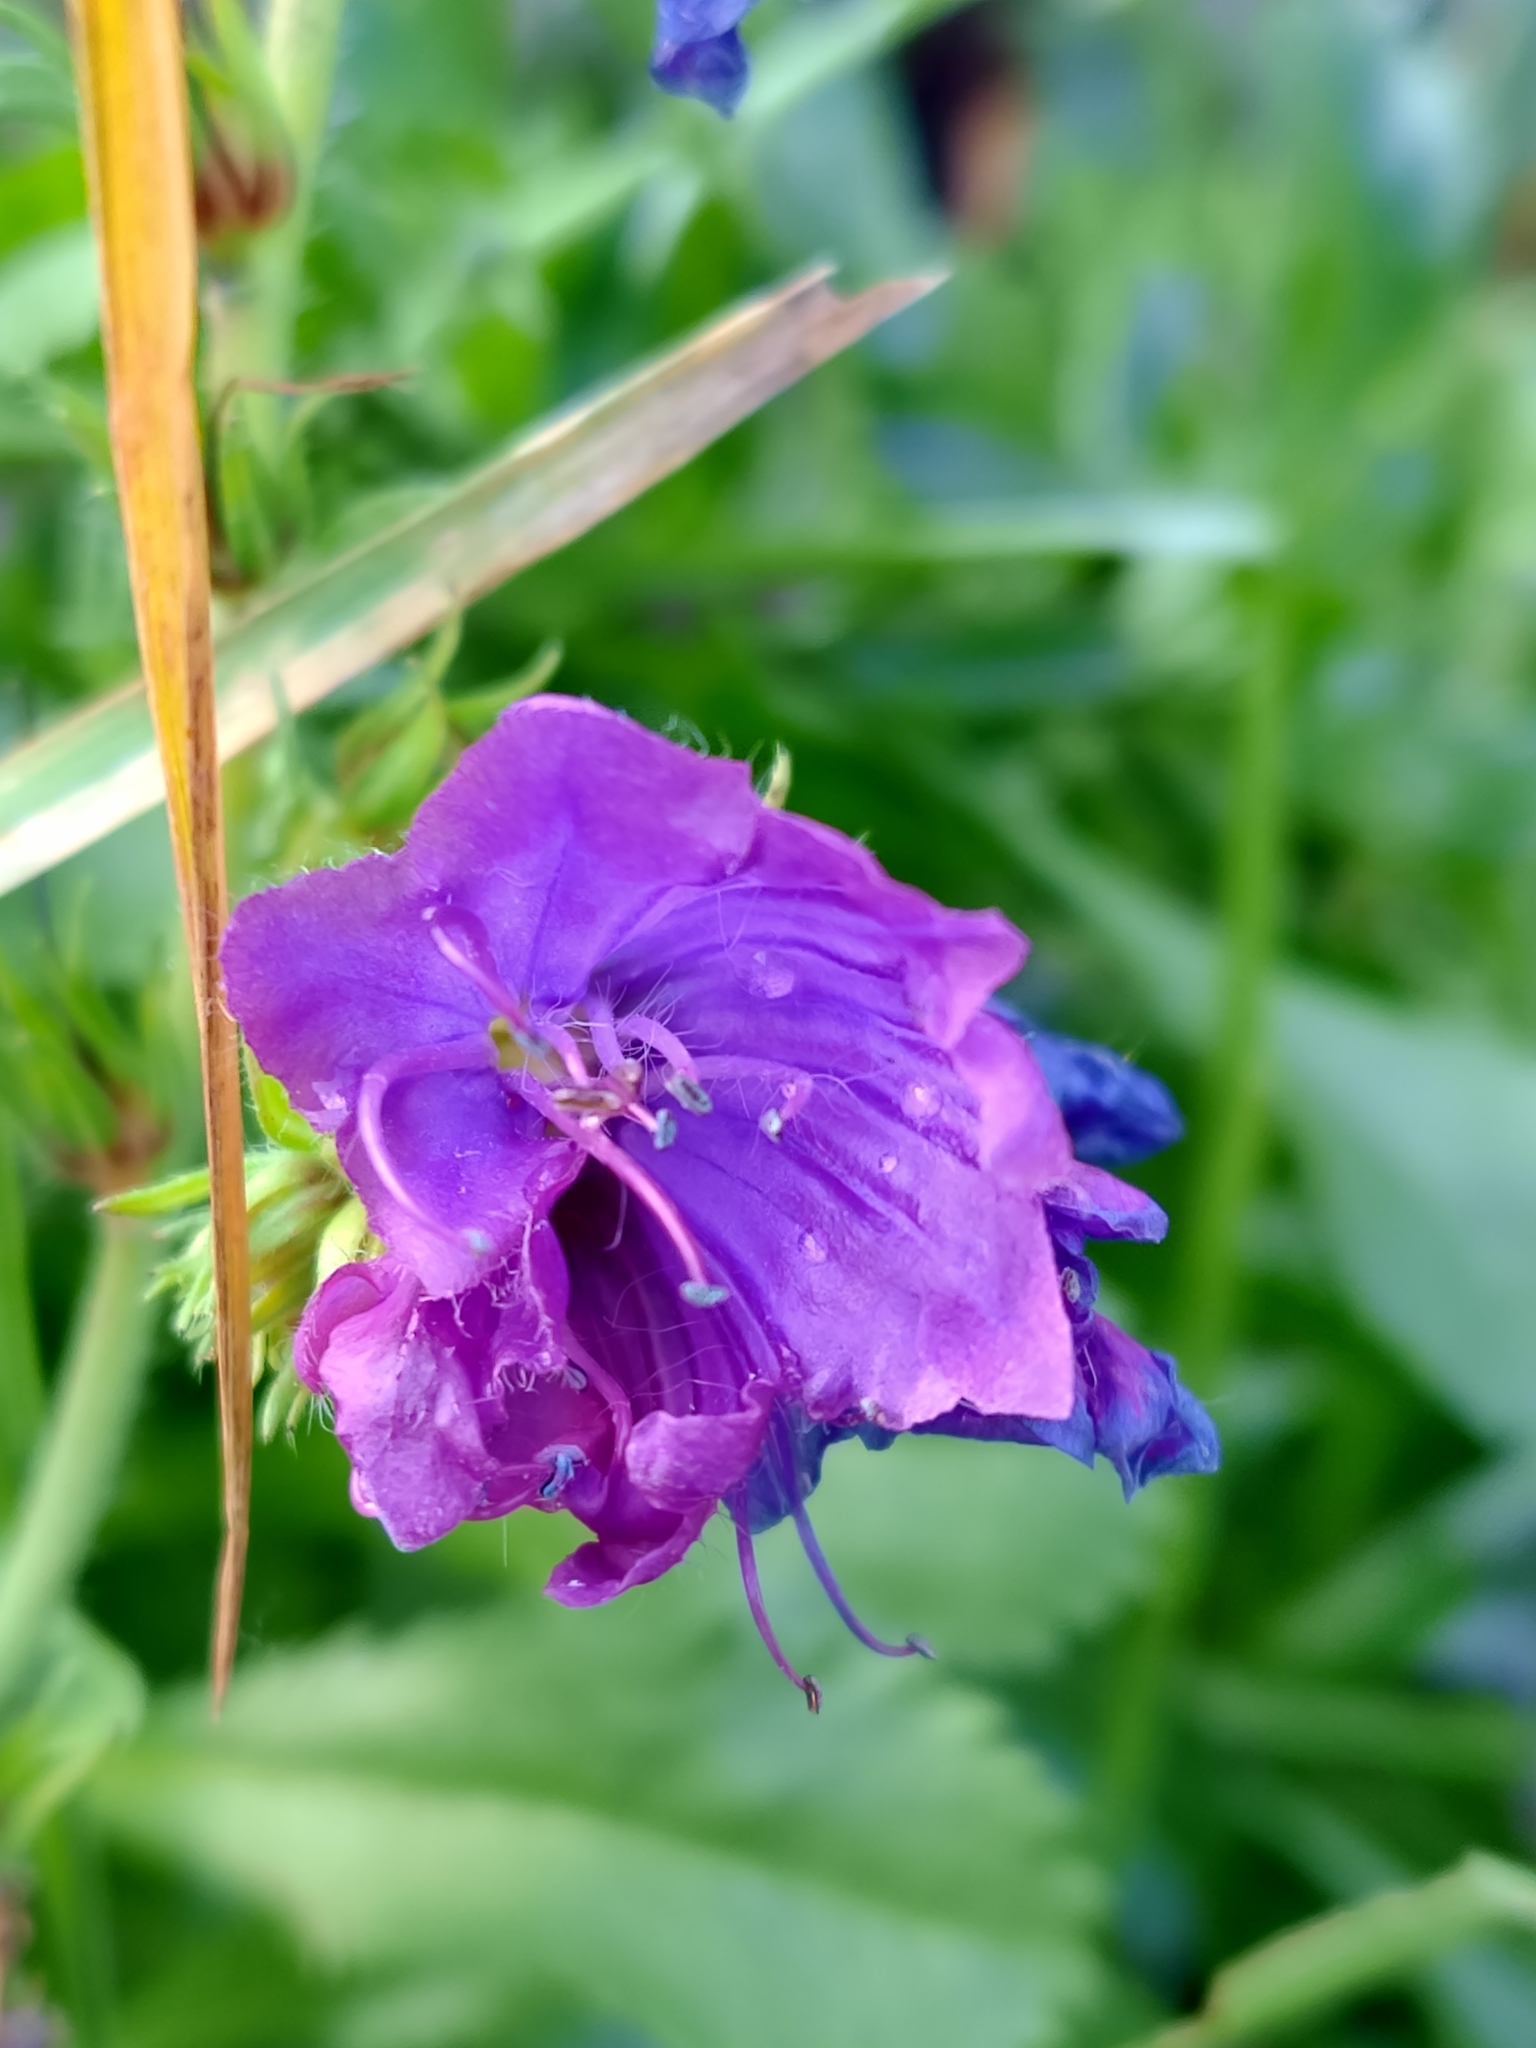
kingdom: Plantae
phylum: Tracheophyta
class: Magnoliopsida
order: Boraginales
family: Boraginaceae
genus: Echium
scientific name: Echium plantagineum
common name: Purple viper's-bugloss
